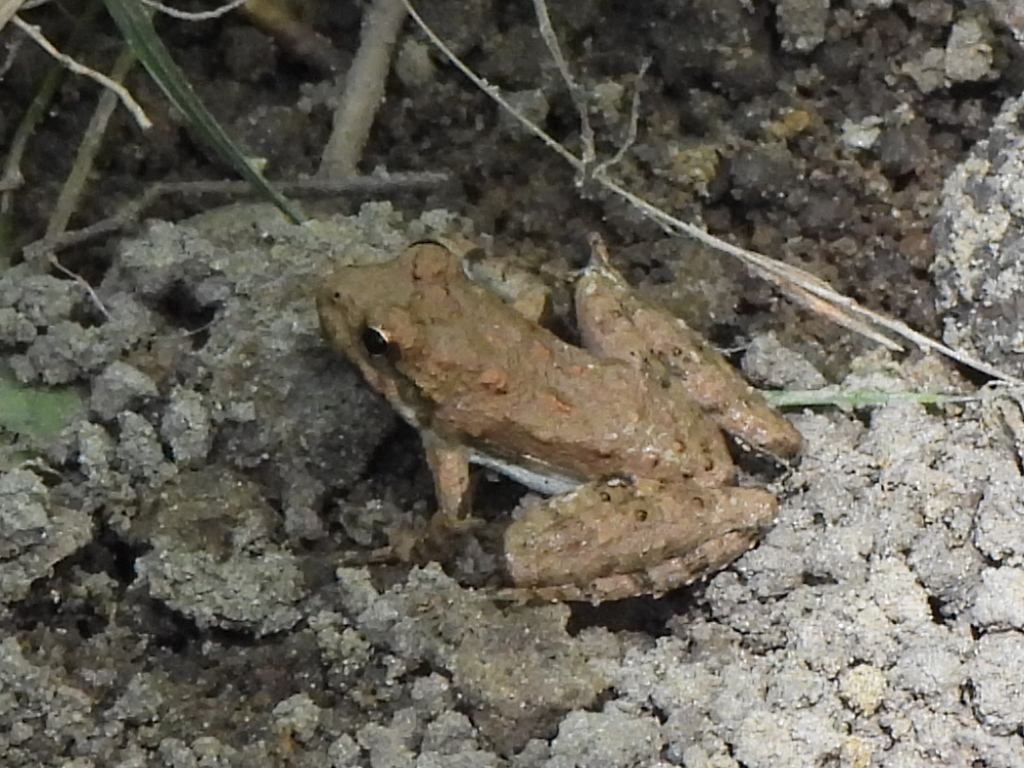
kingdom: Animalia
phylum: Chordata
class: Amphibia
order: Anura
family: Hylidae
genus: Acris
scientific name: Acris blanchardi
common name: Blanchard's cricket frog
